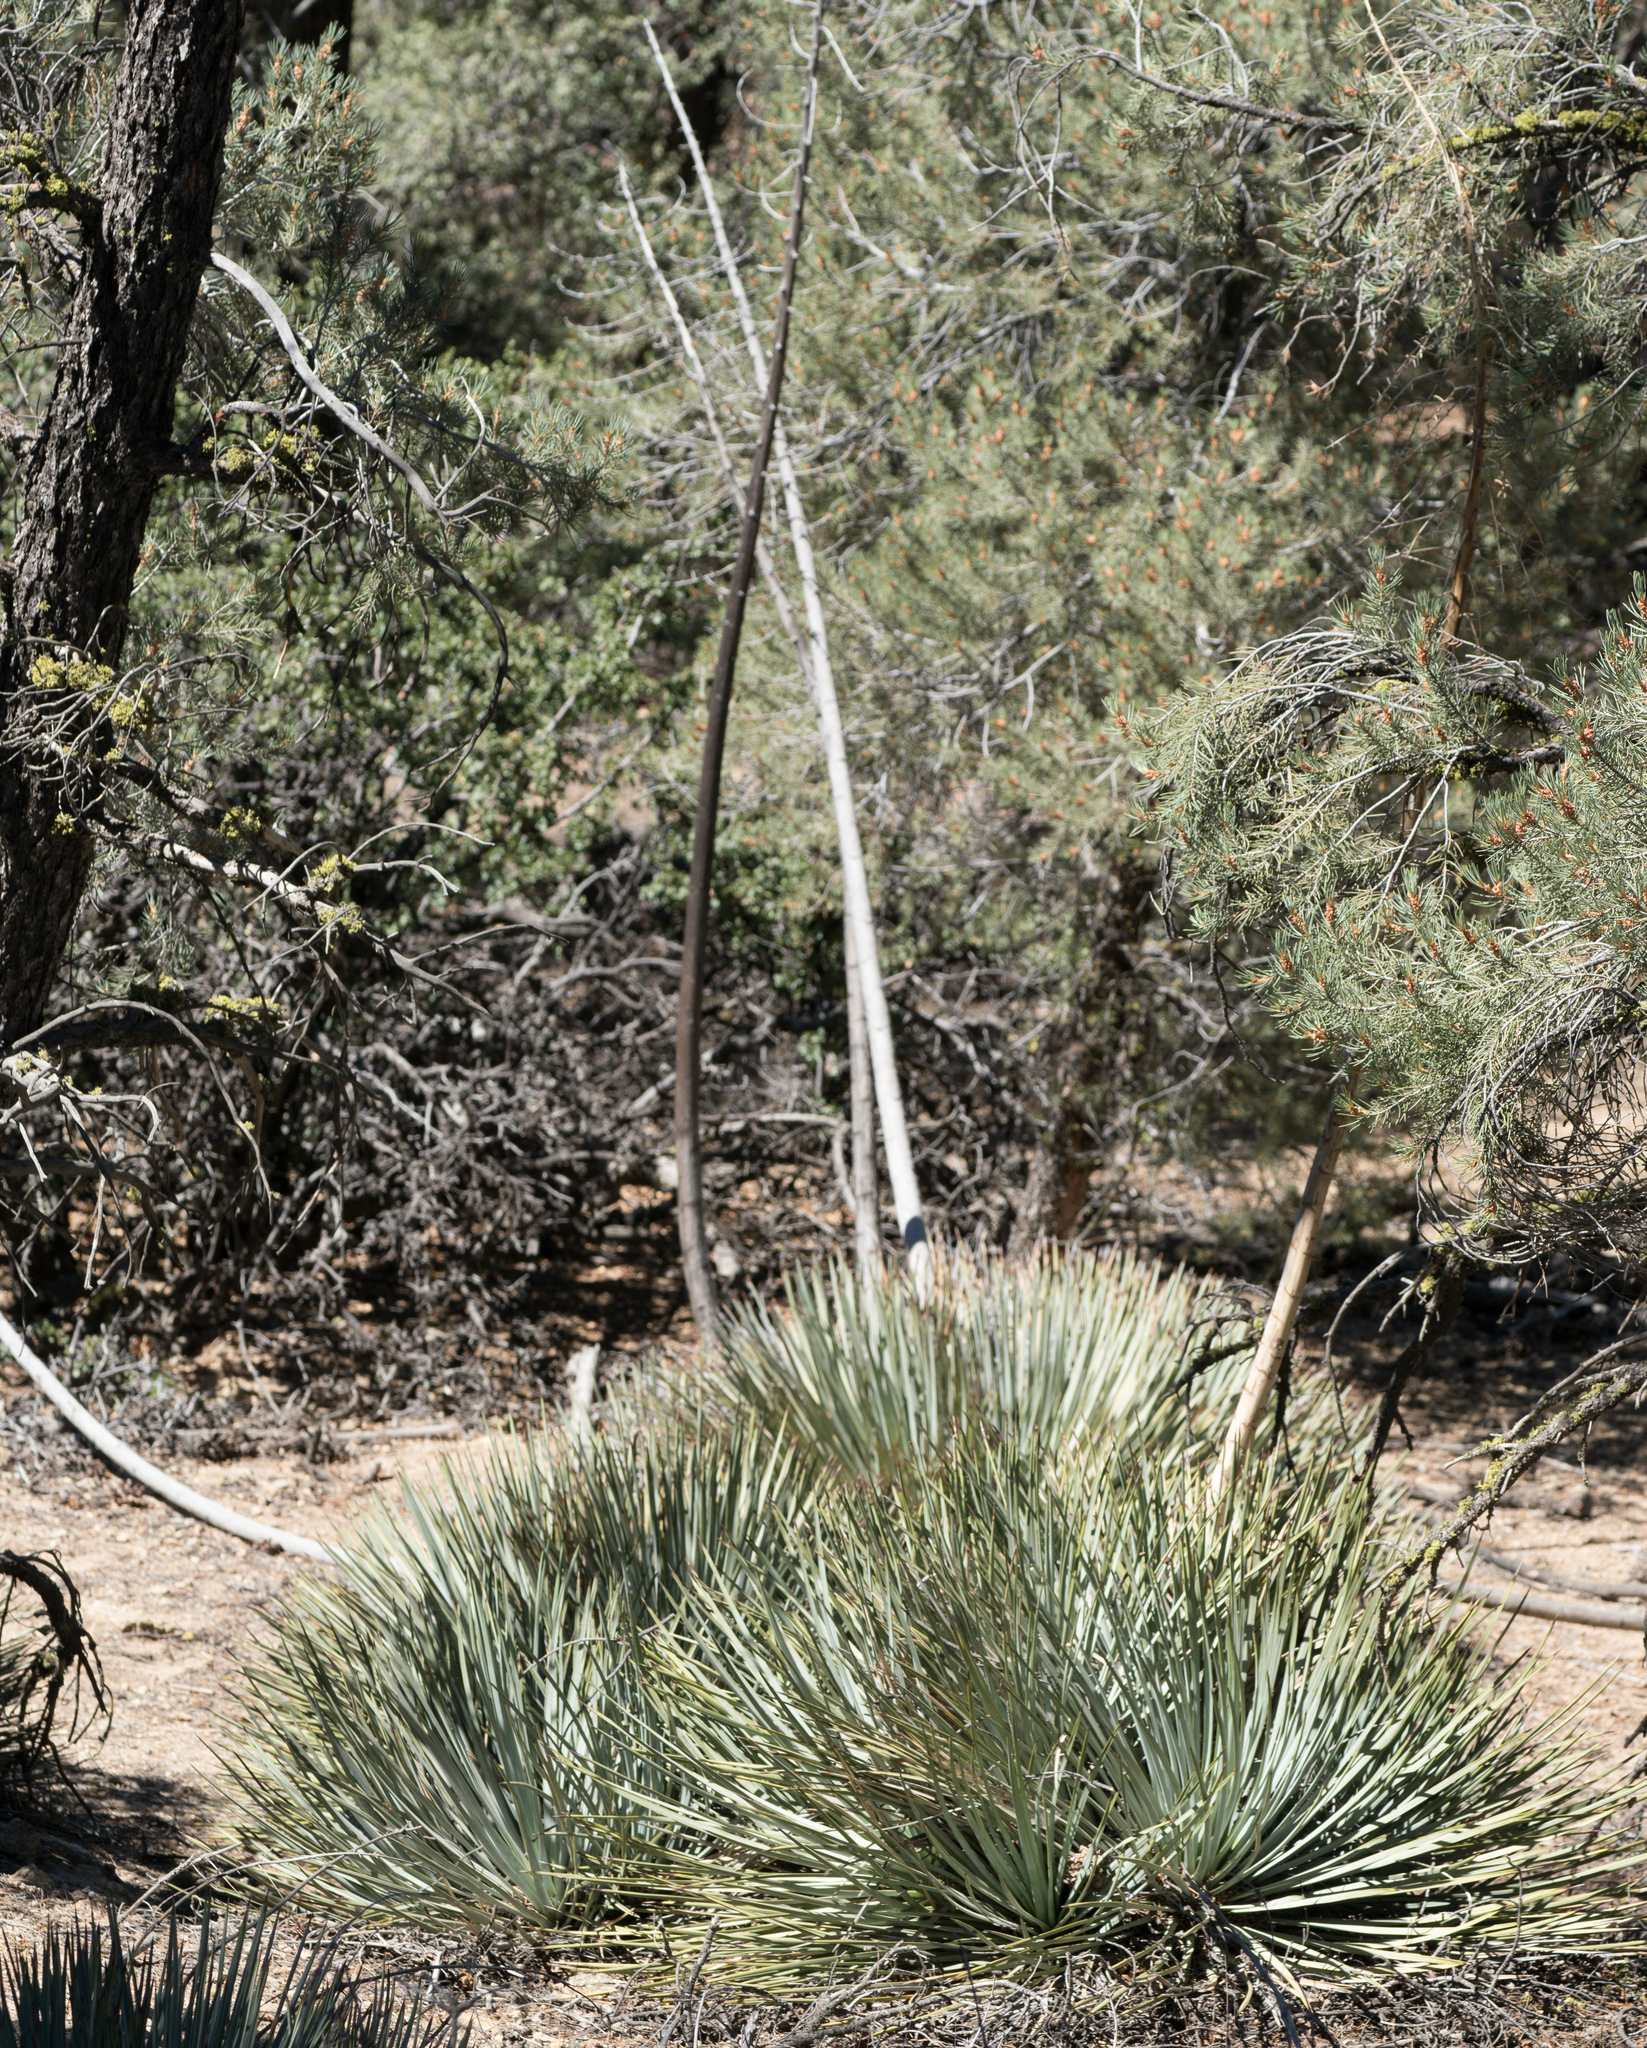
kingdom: Plantae
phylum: Tracheophyta
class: Liliopsida
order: Asparagales
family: Asparagaceae
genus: Hesperoyucca
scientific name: Hesperoyucca whipplei
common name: Our lord's-candle
